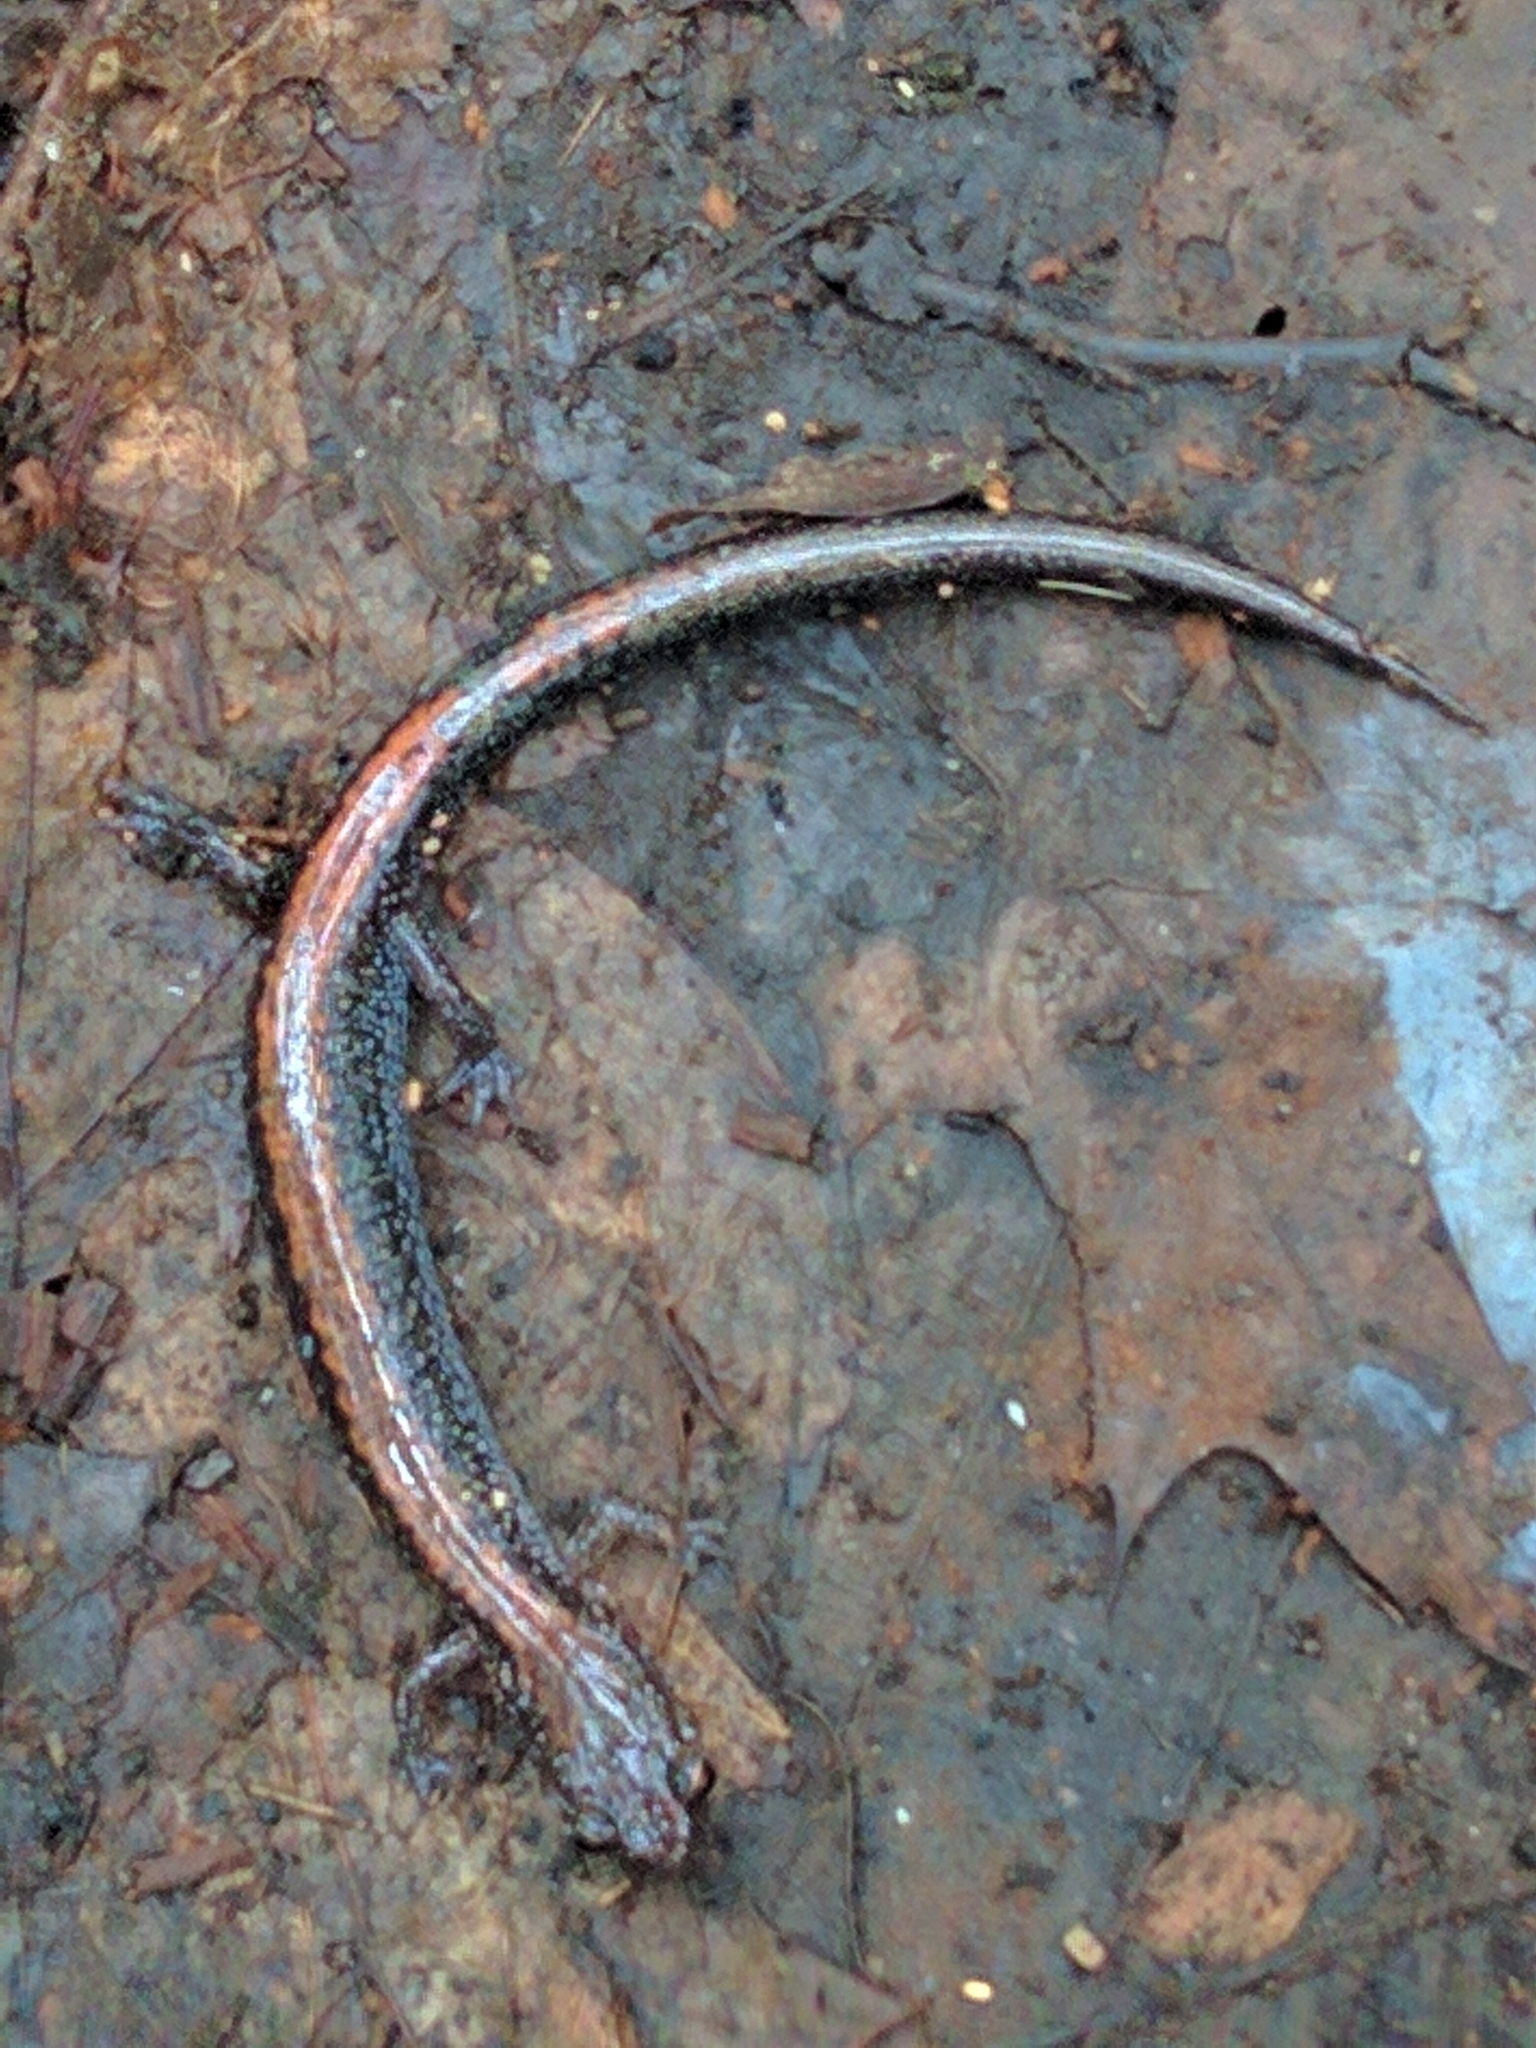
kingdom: Animalia
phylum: Chordata
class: Amphibia
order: Caudata
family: Plethodontidae
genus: Plethodon
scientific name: Plethodon cinereus
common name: Redback salamander
